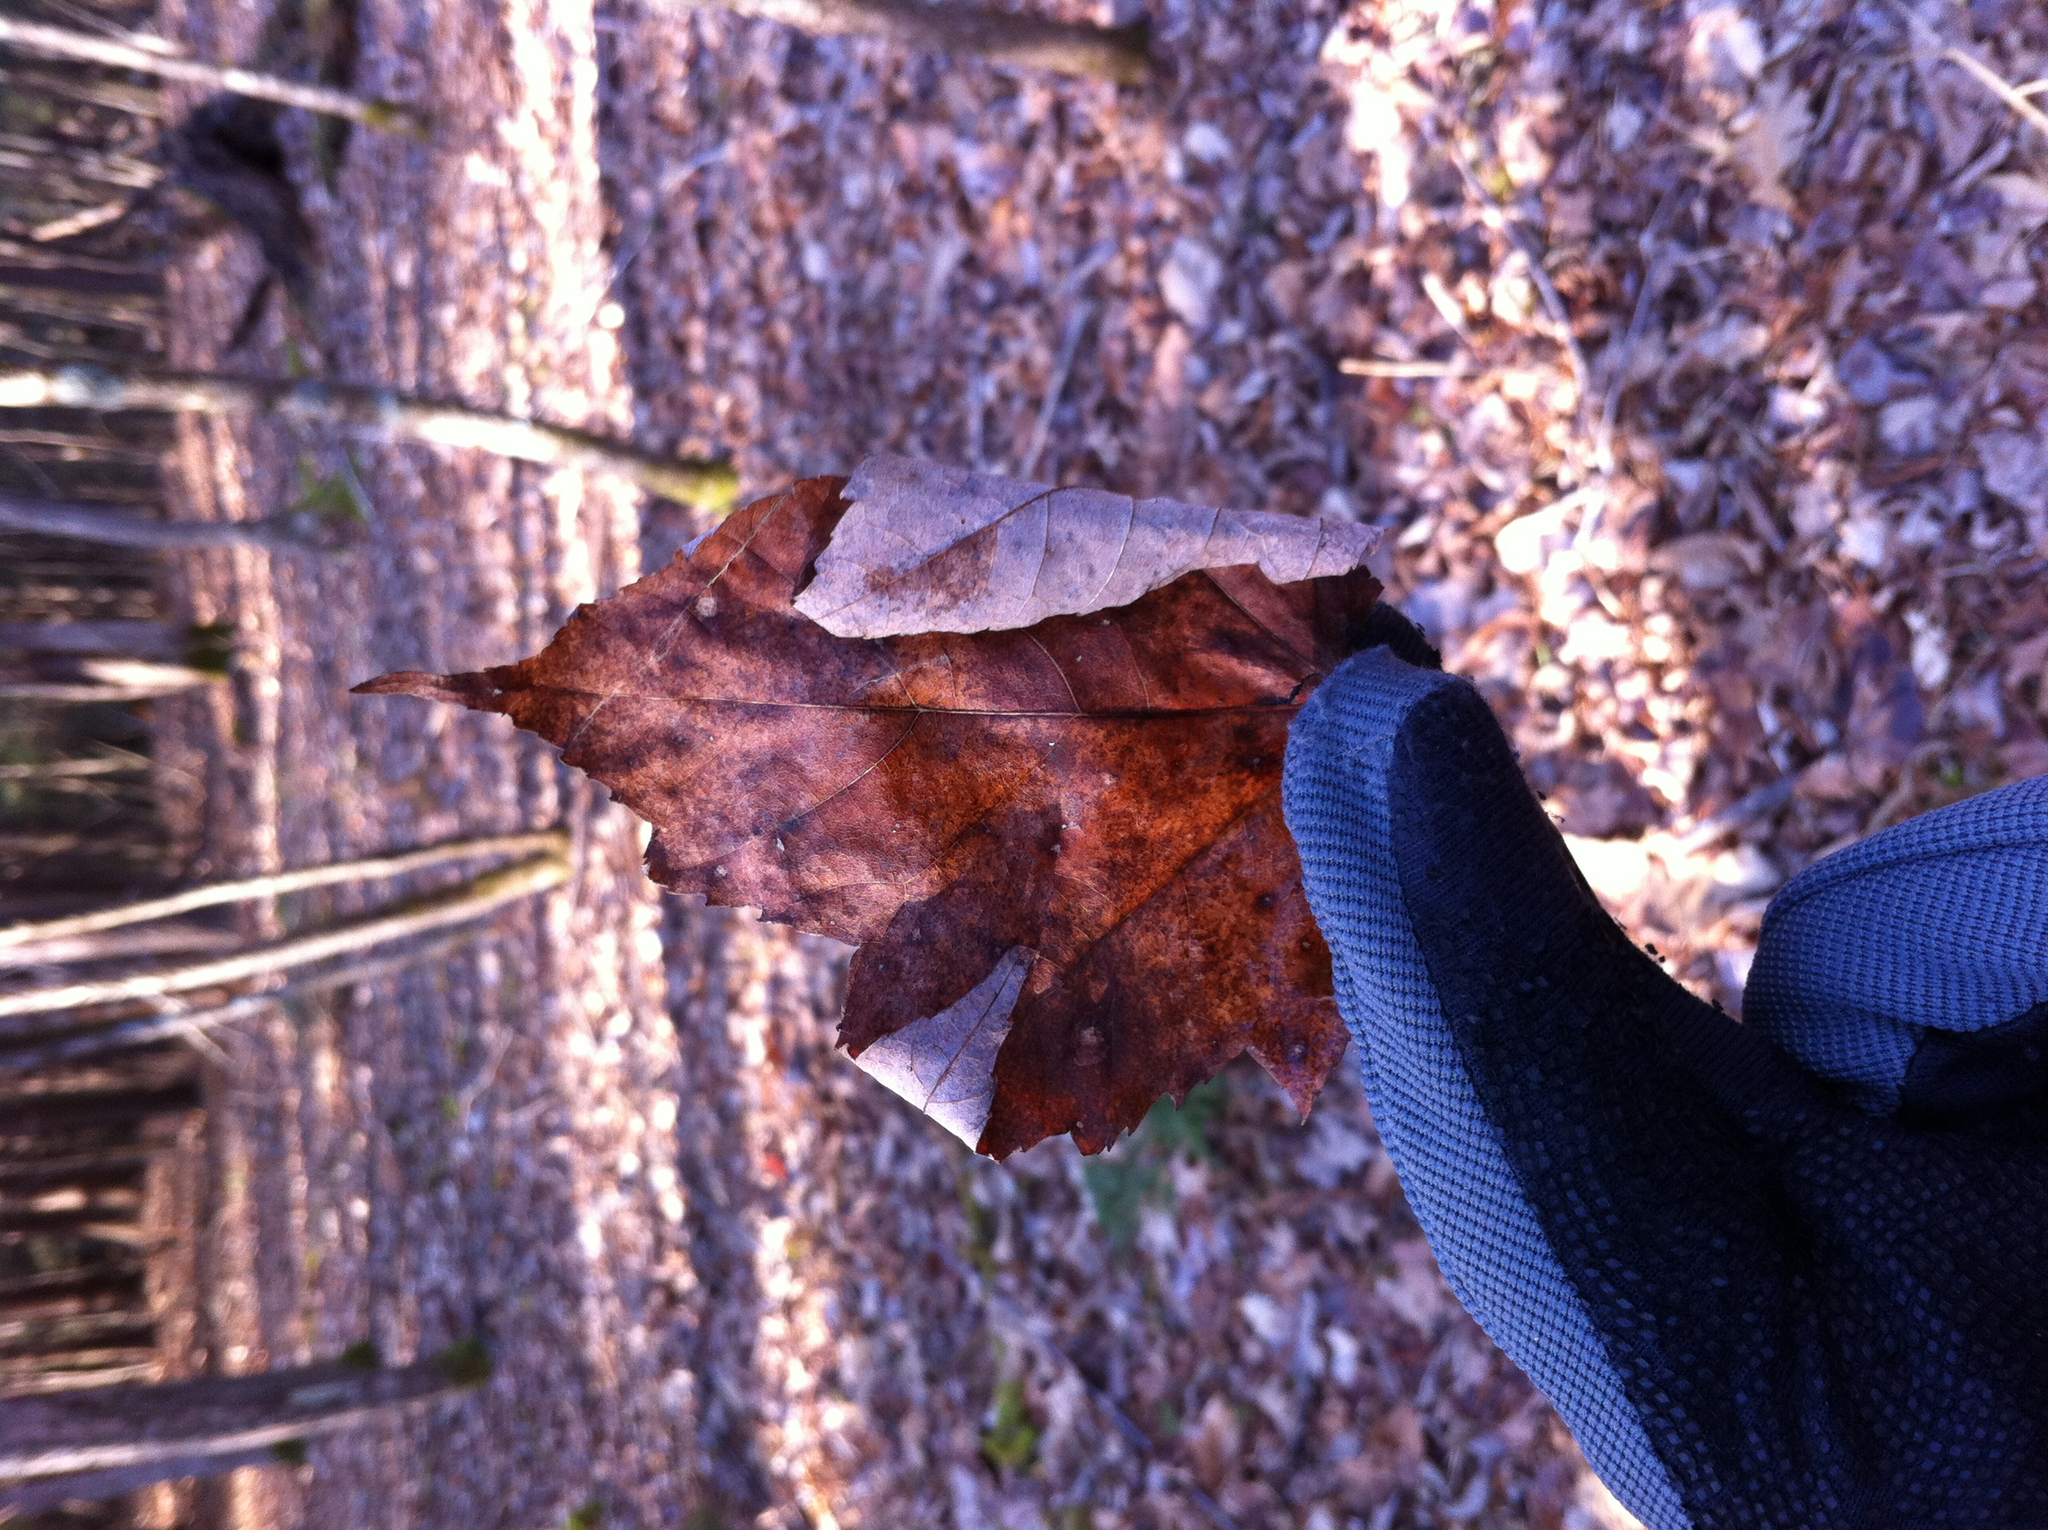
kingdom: Plantae
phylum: Tracheophyta
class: Magnoliopsida
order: Sapindales
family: Sapindaceae
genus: Acer
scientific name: Acer rubrum
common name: Red maple
